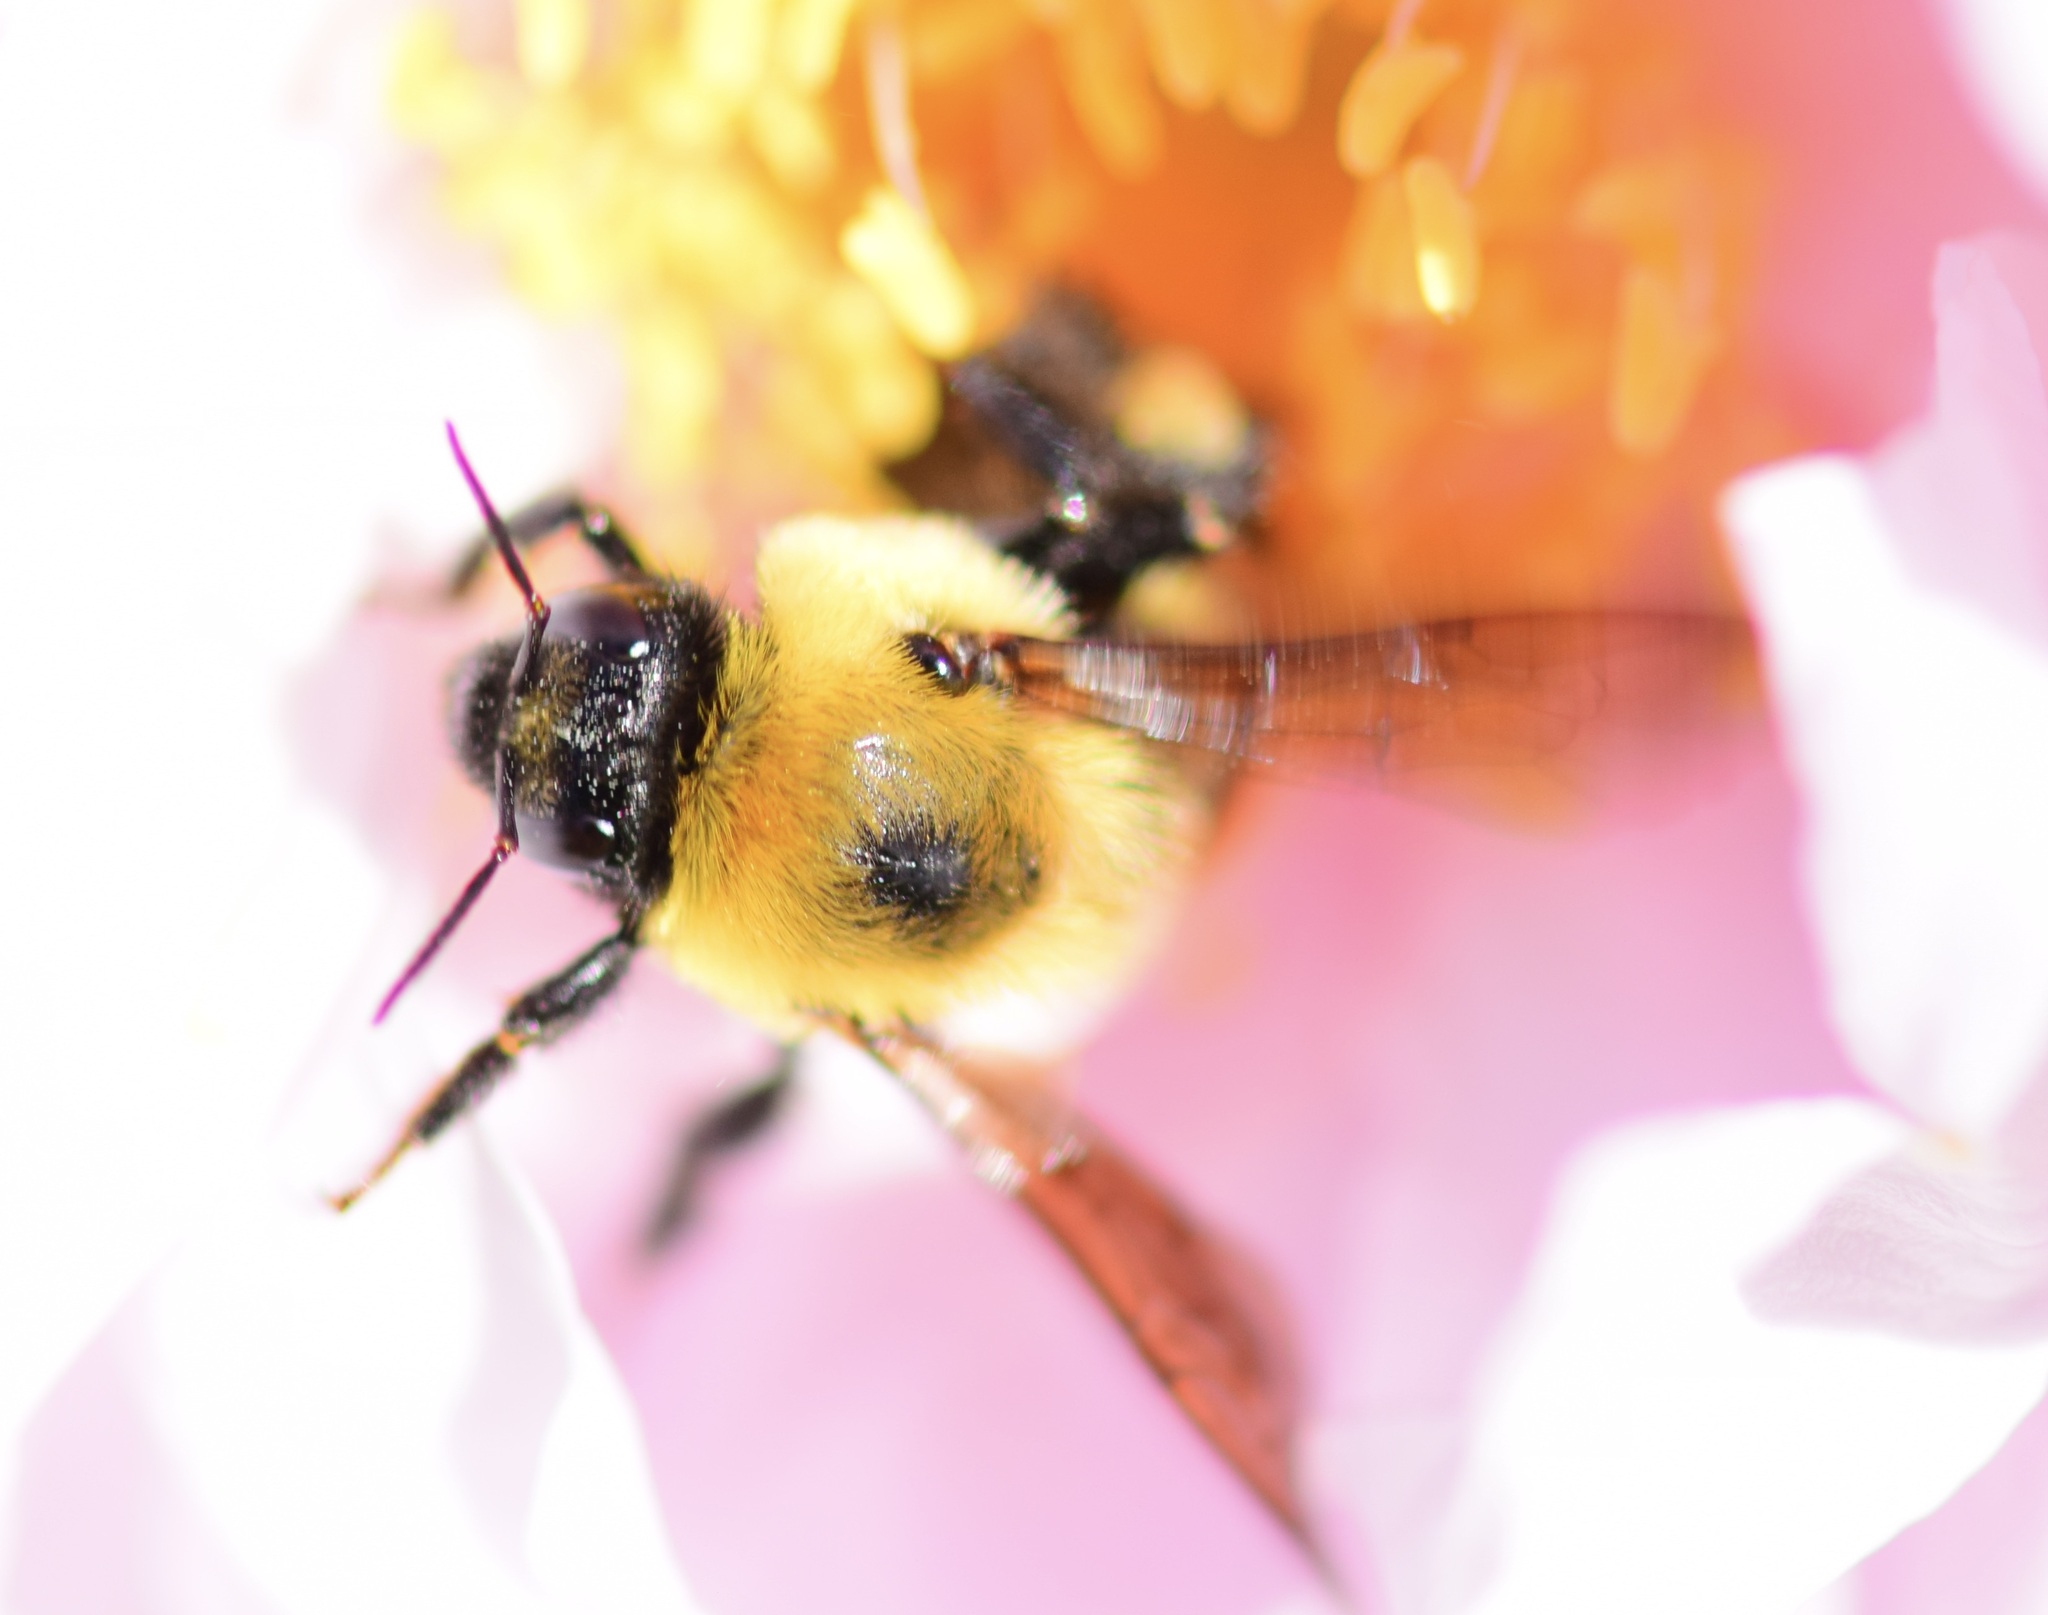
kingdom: Animalia
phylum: Arthropoda
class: Insecta
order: Hymenoptera
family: Apidae
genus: Bombus
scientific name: Bombus griseocollis
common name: Brown-belted bumble bee
